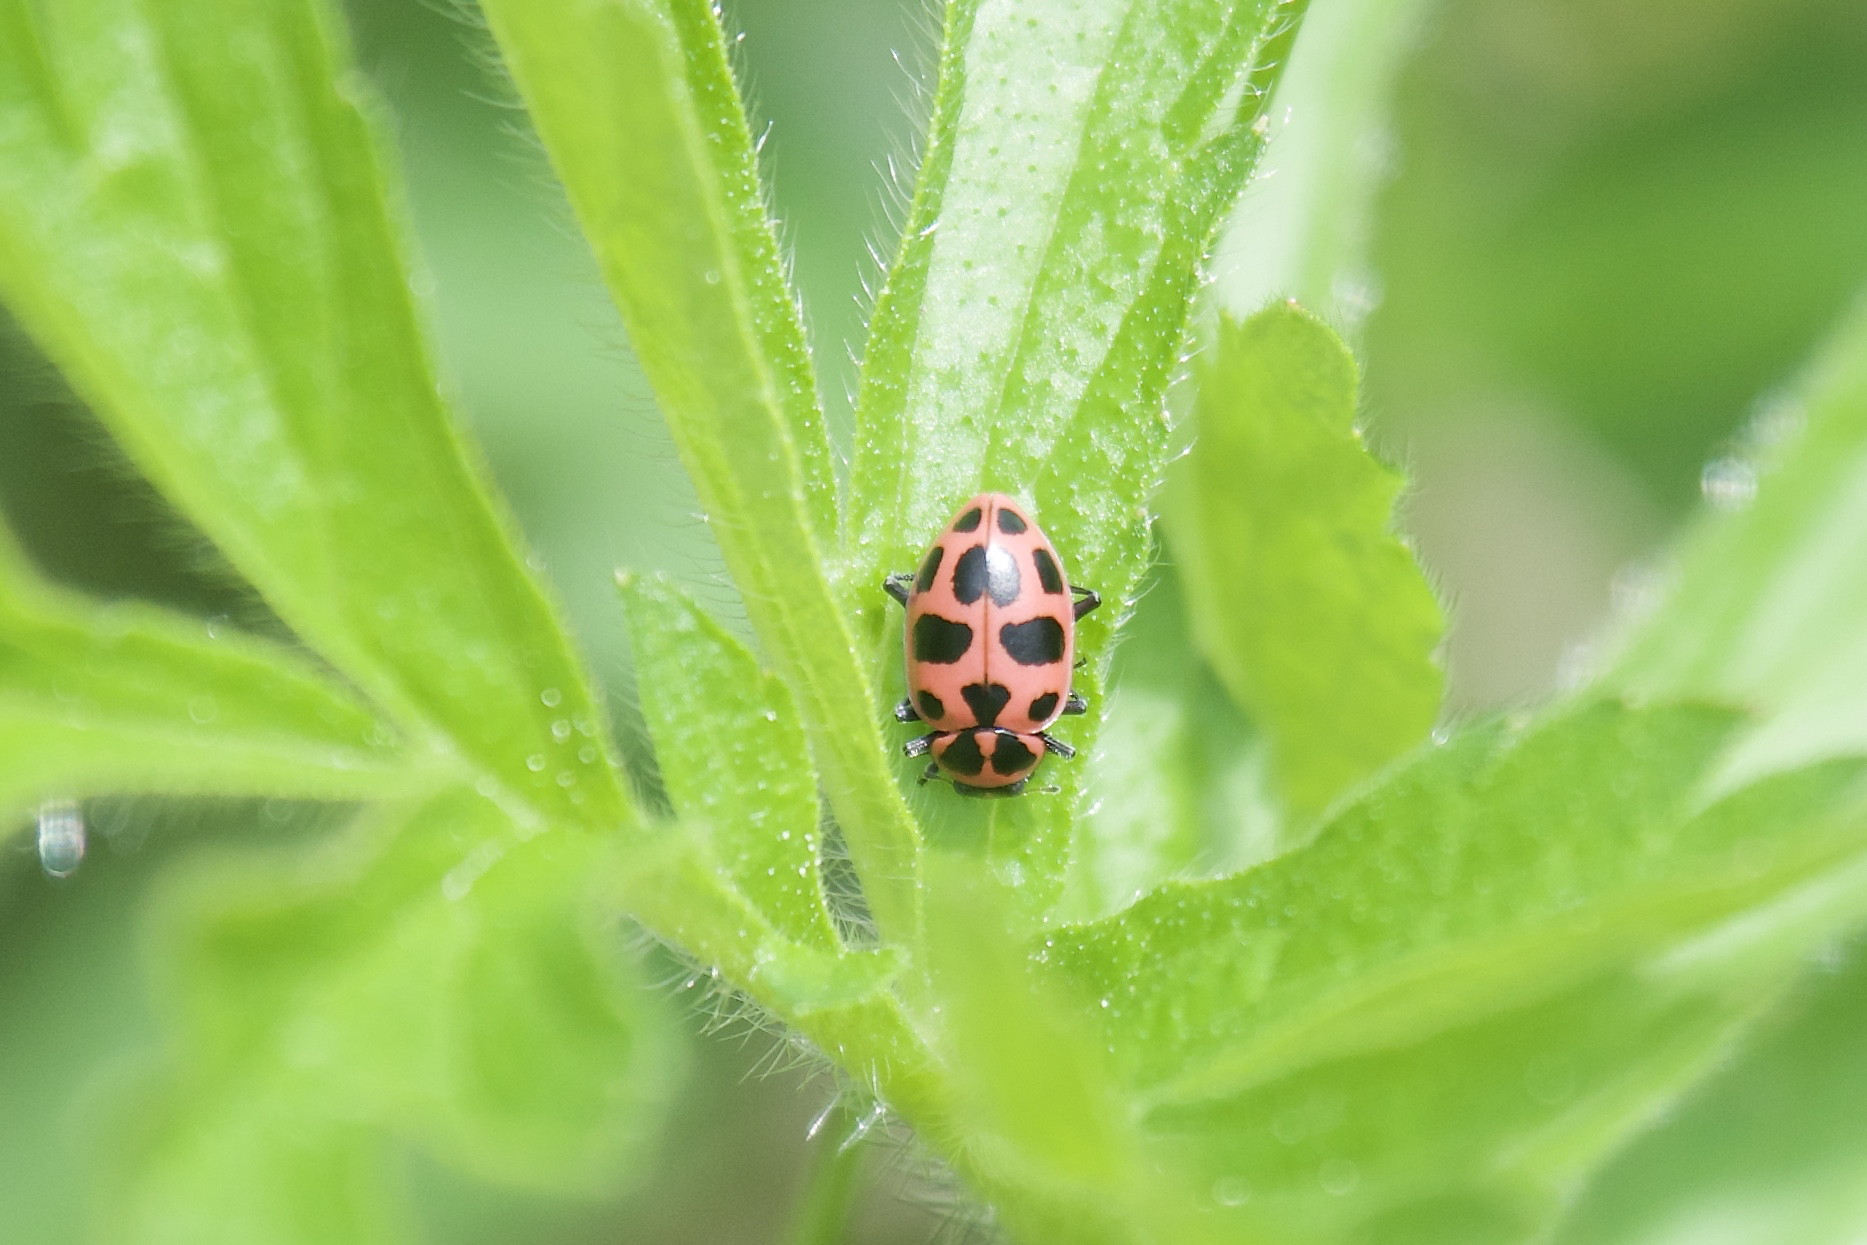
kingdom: Animalia
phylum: Arthropoda
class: Insecta
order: Coleoptera
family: Coccinellidae
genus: Coleomegilla
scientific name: Coleomegilla maculata
